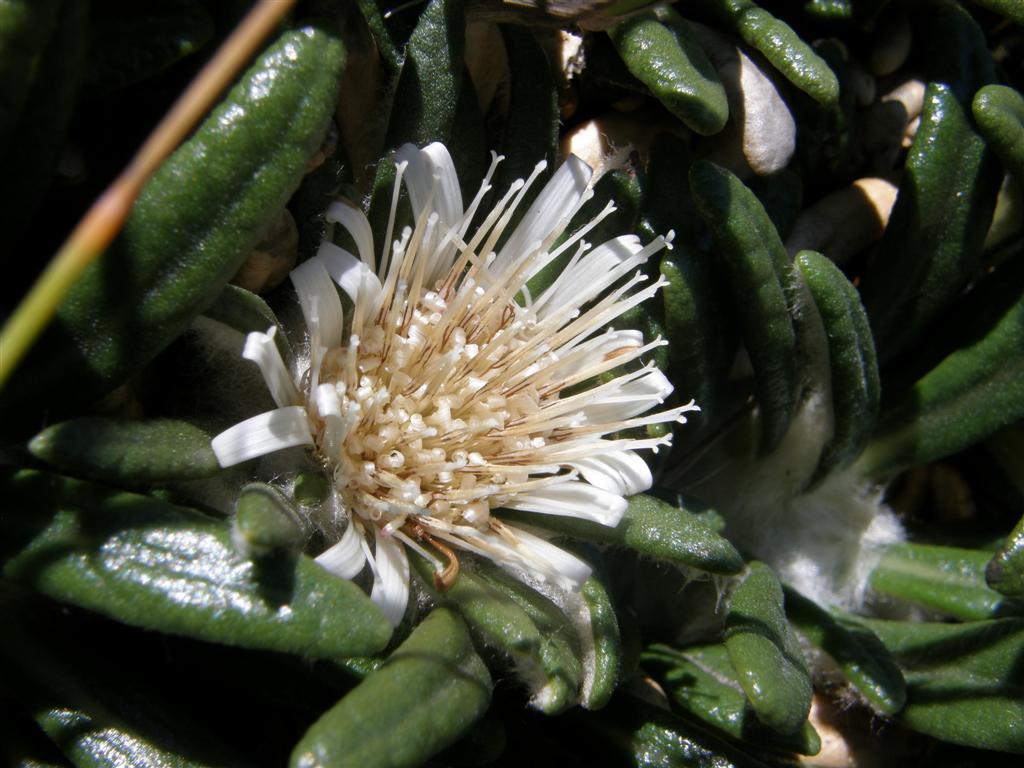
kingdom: Plantae
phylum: Tracheophyta
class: Magnoliopsida
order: Asterales
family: Asteraceae
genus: Oldenburgia
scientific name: Oldenburgia paradoxa
